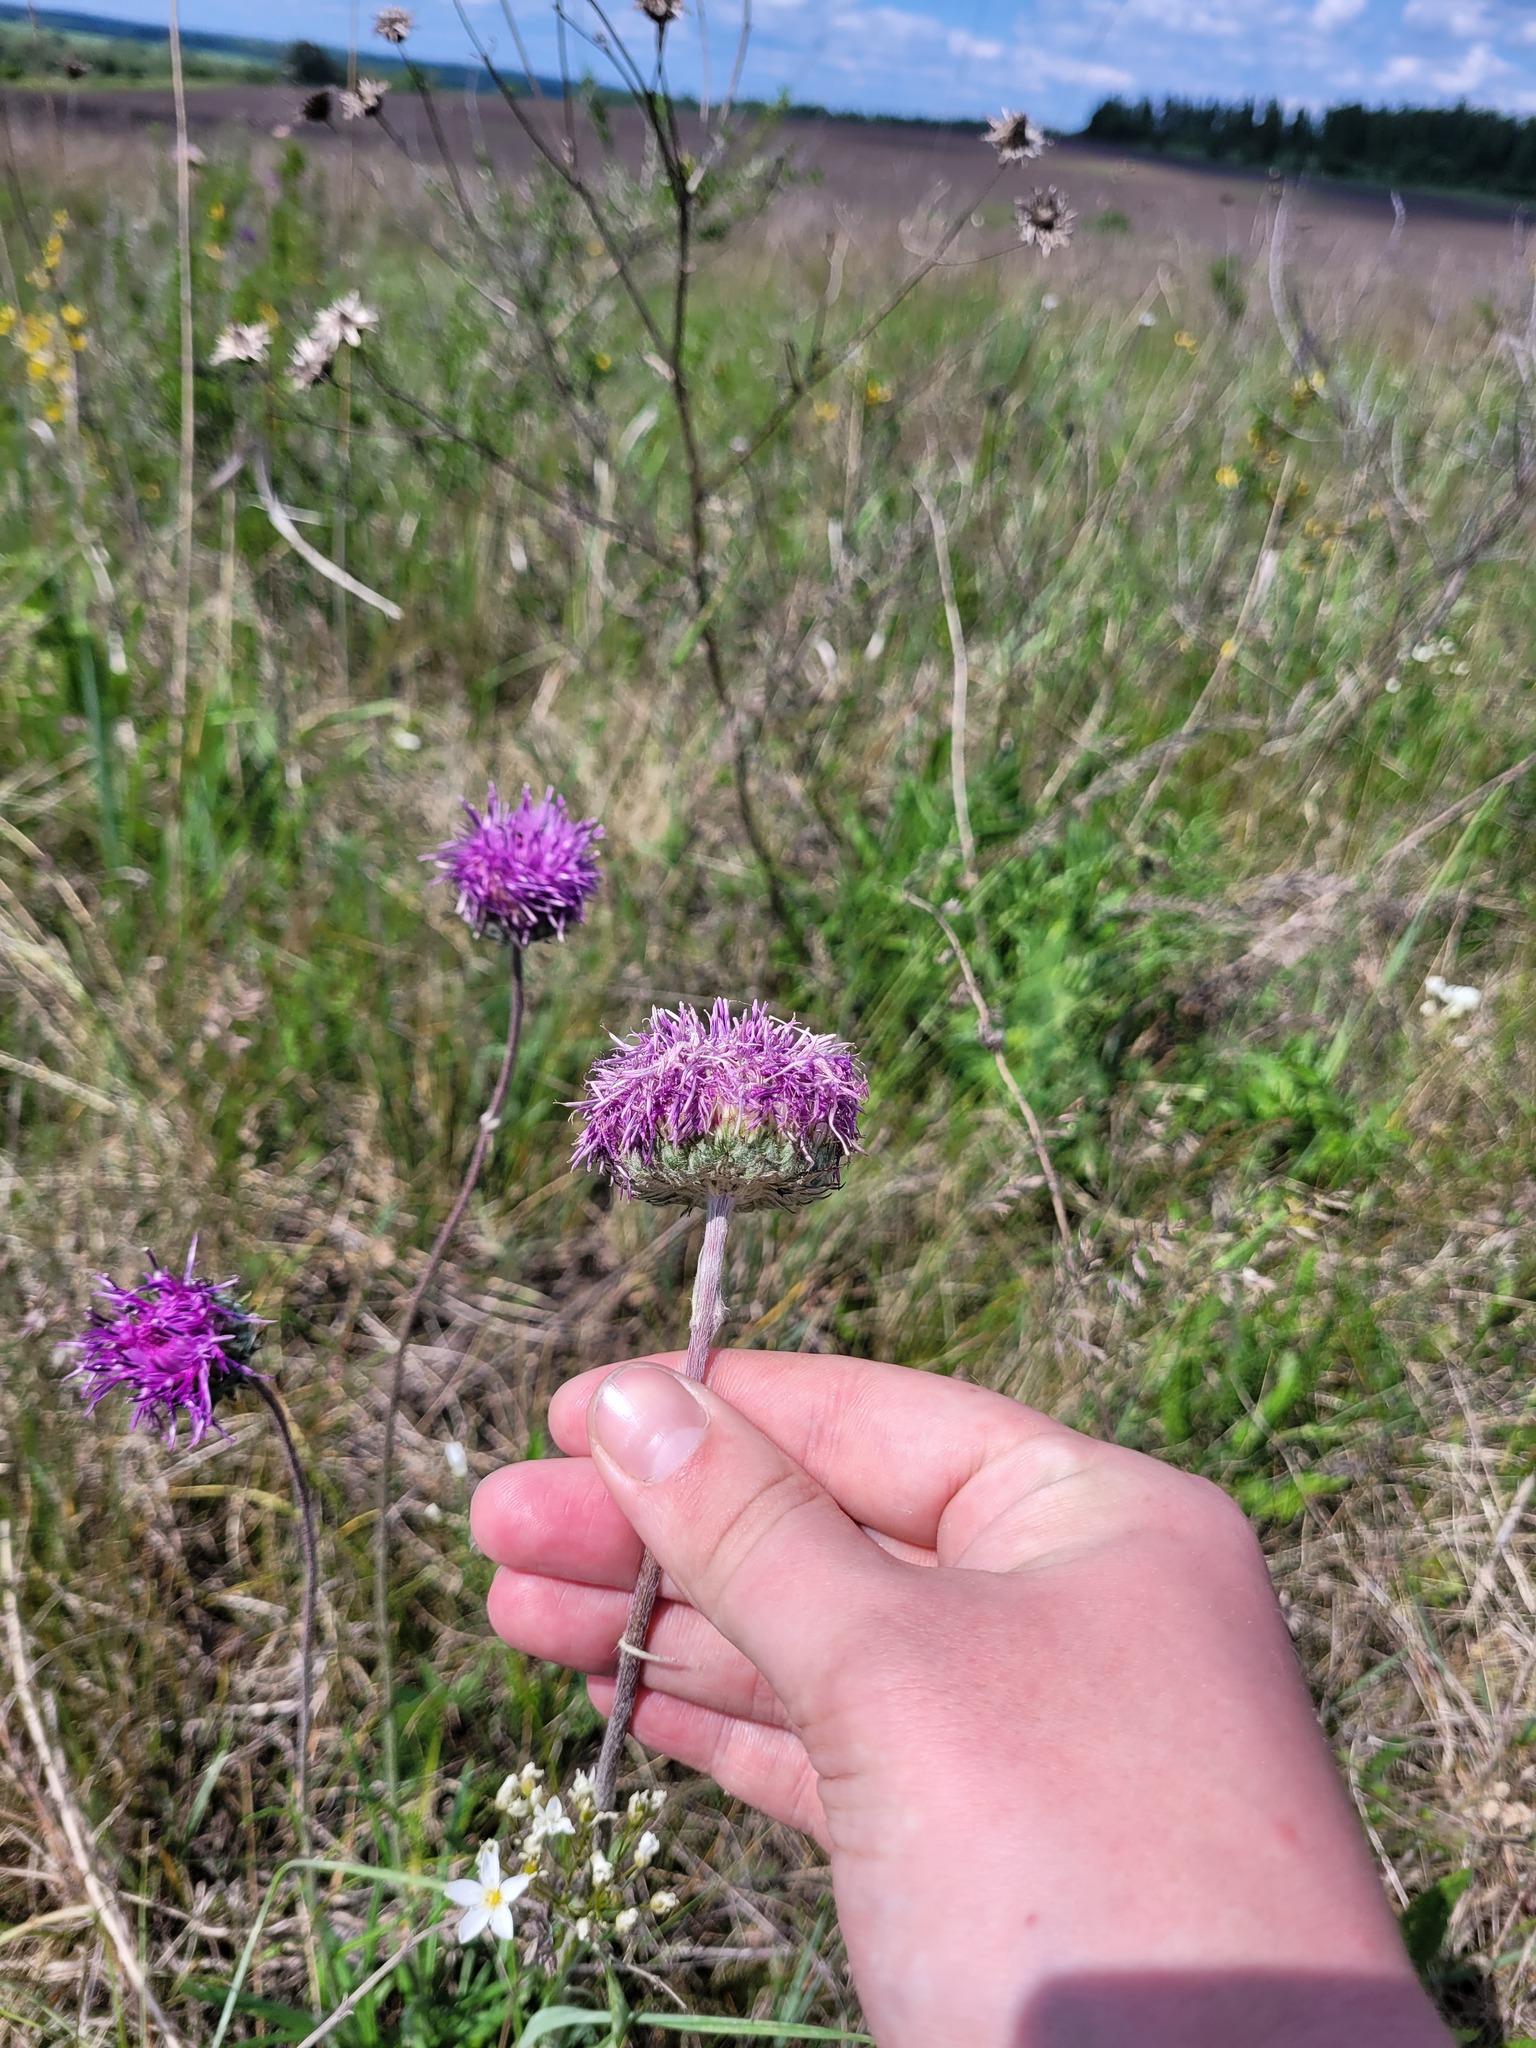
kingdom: Plantae
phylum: Tracheophyta
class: Magnoliopsida
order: Asterales
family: Asteraceae
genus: Jurinea
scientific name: Jurinea ledebourii
